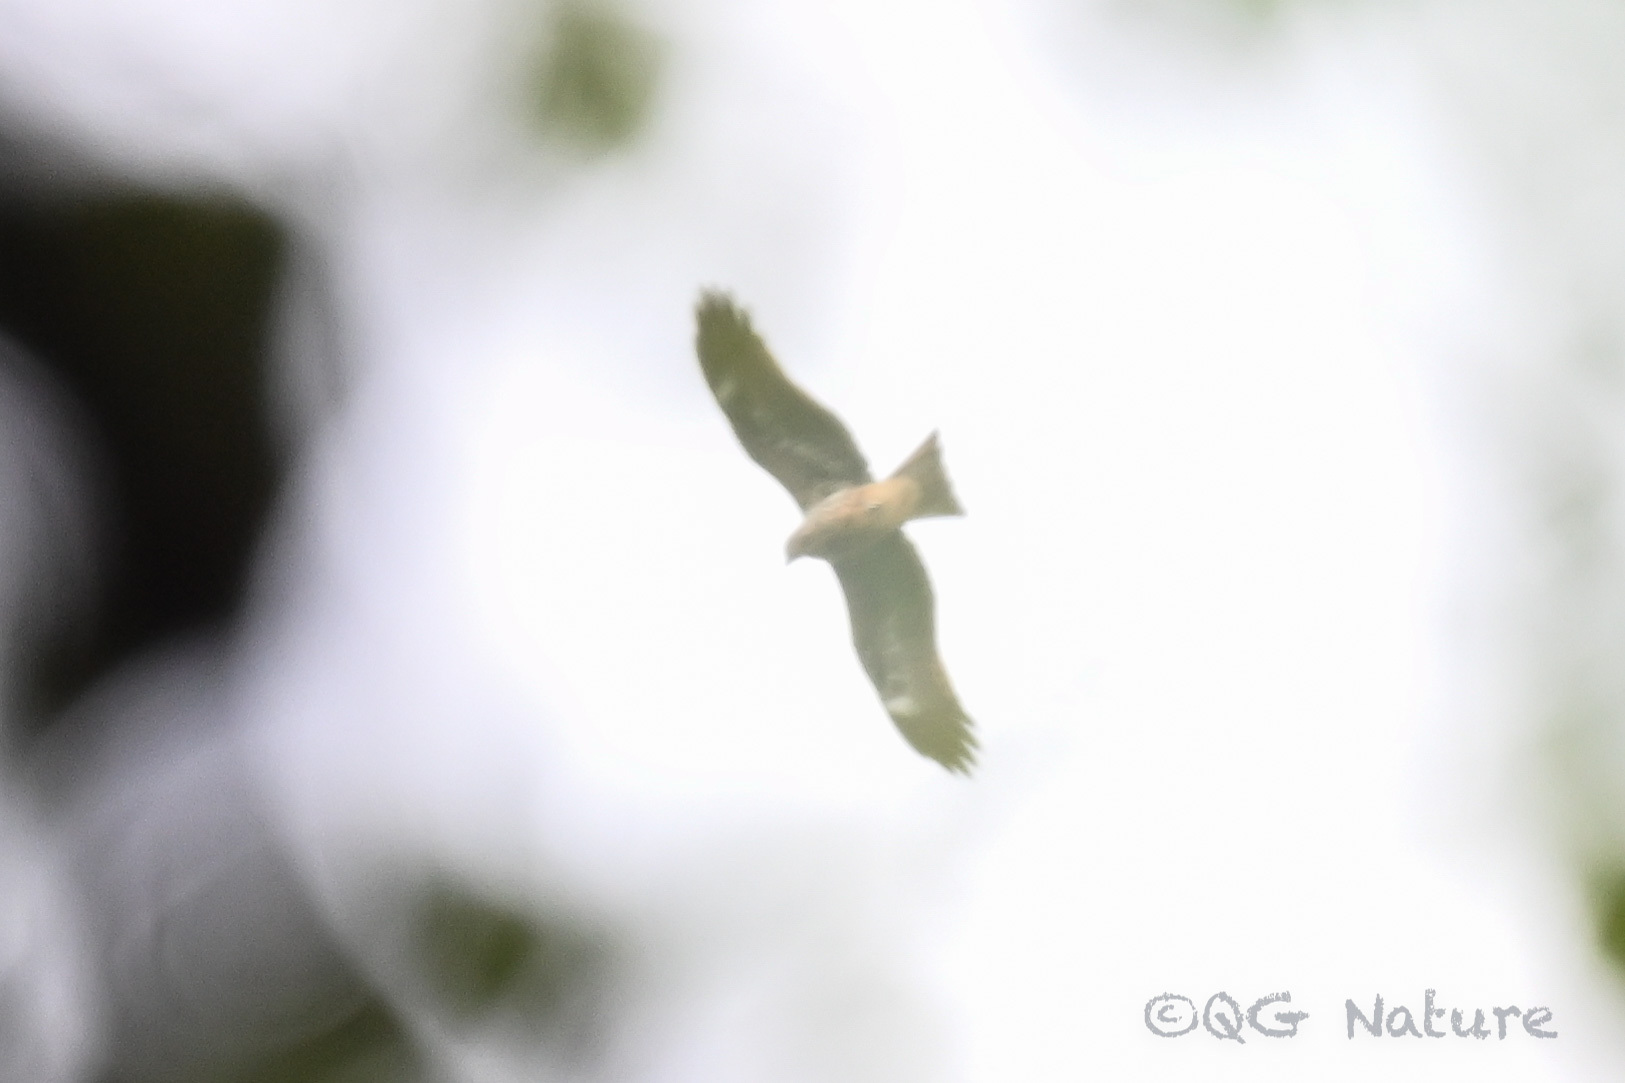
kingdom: Animalia
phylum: Chordata
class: Aves
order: Accipitriformes
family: Accipitridae
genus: Milvus
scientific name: Milvus migrans
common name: Black kite
